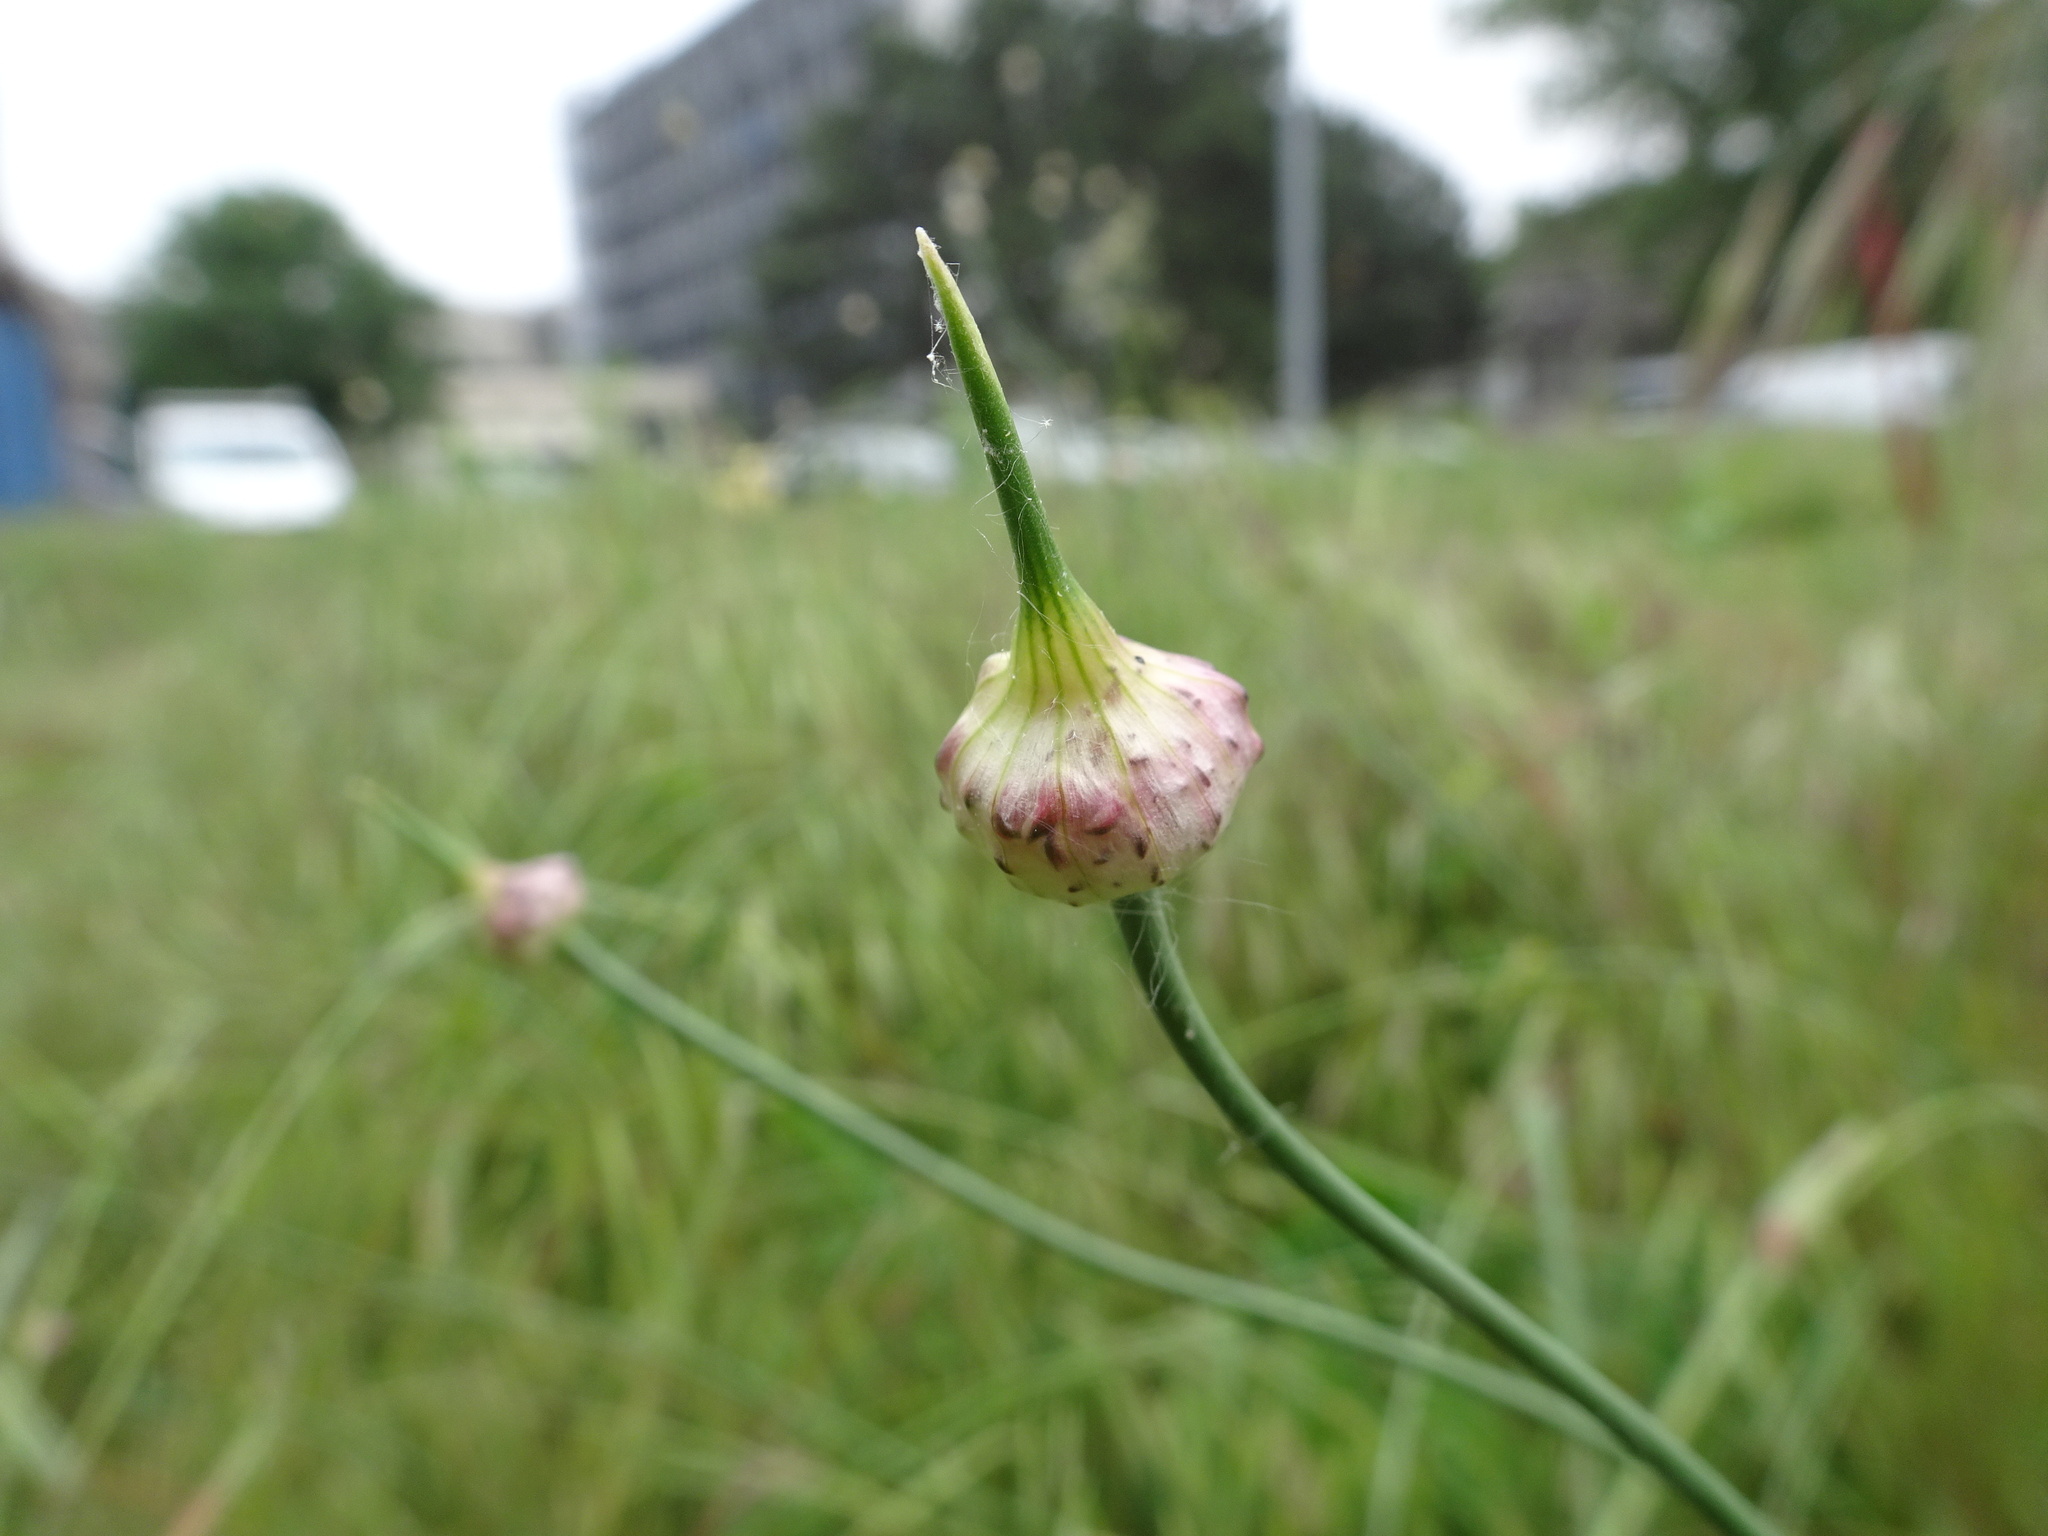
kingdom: Plantae
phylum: Tracheophyta
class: Liliopsida
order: Asparagales
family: Amaryllidaceae
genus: Allium
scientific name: Allium vineale
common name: Crow garlic
